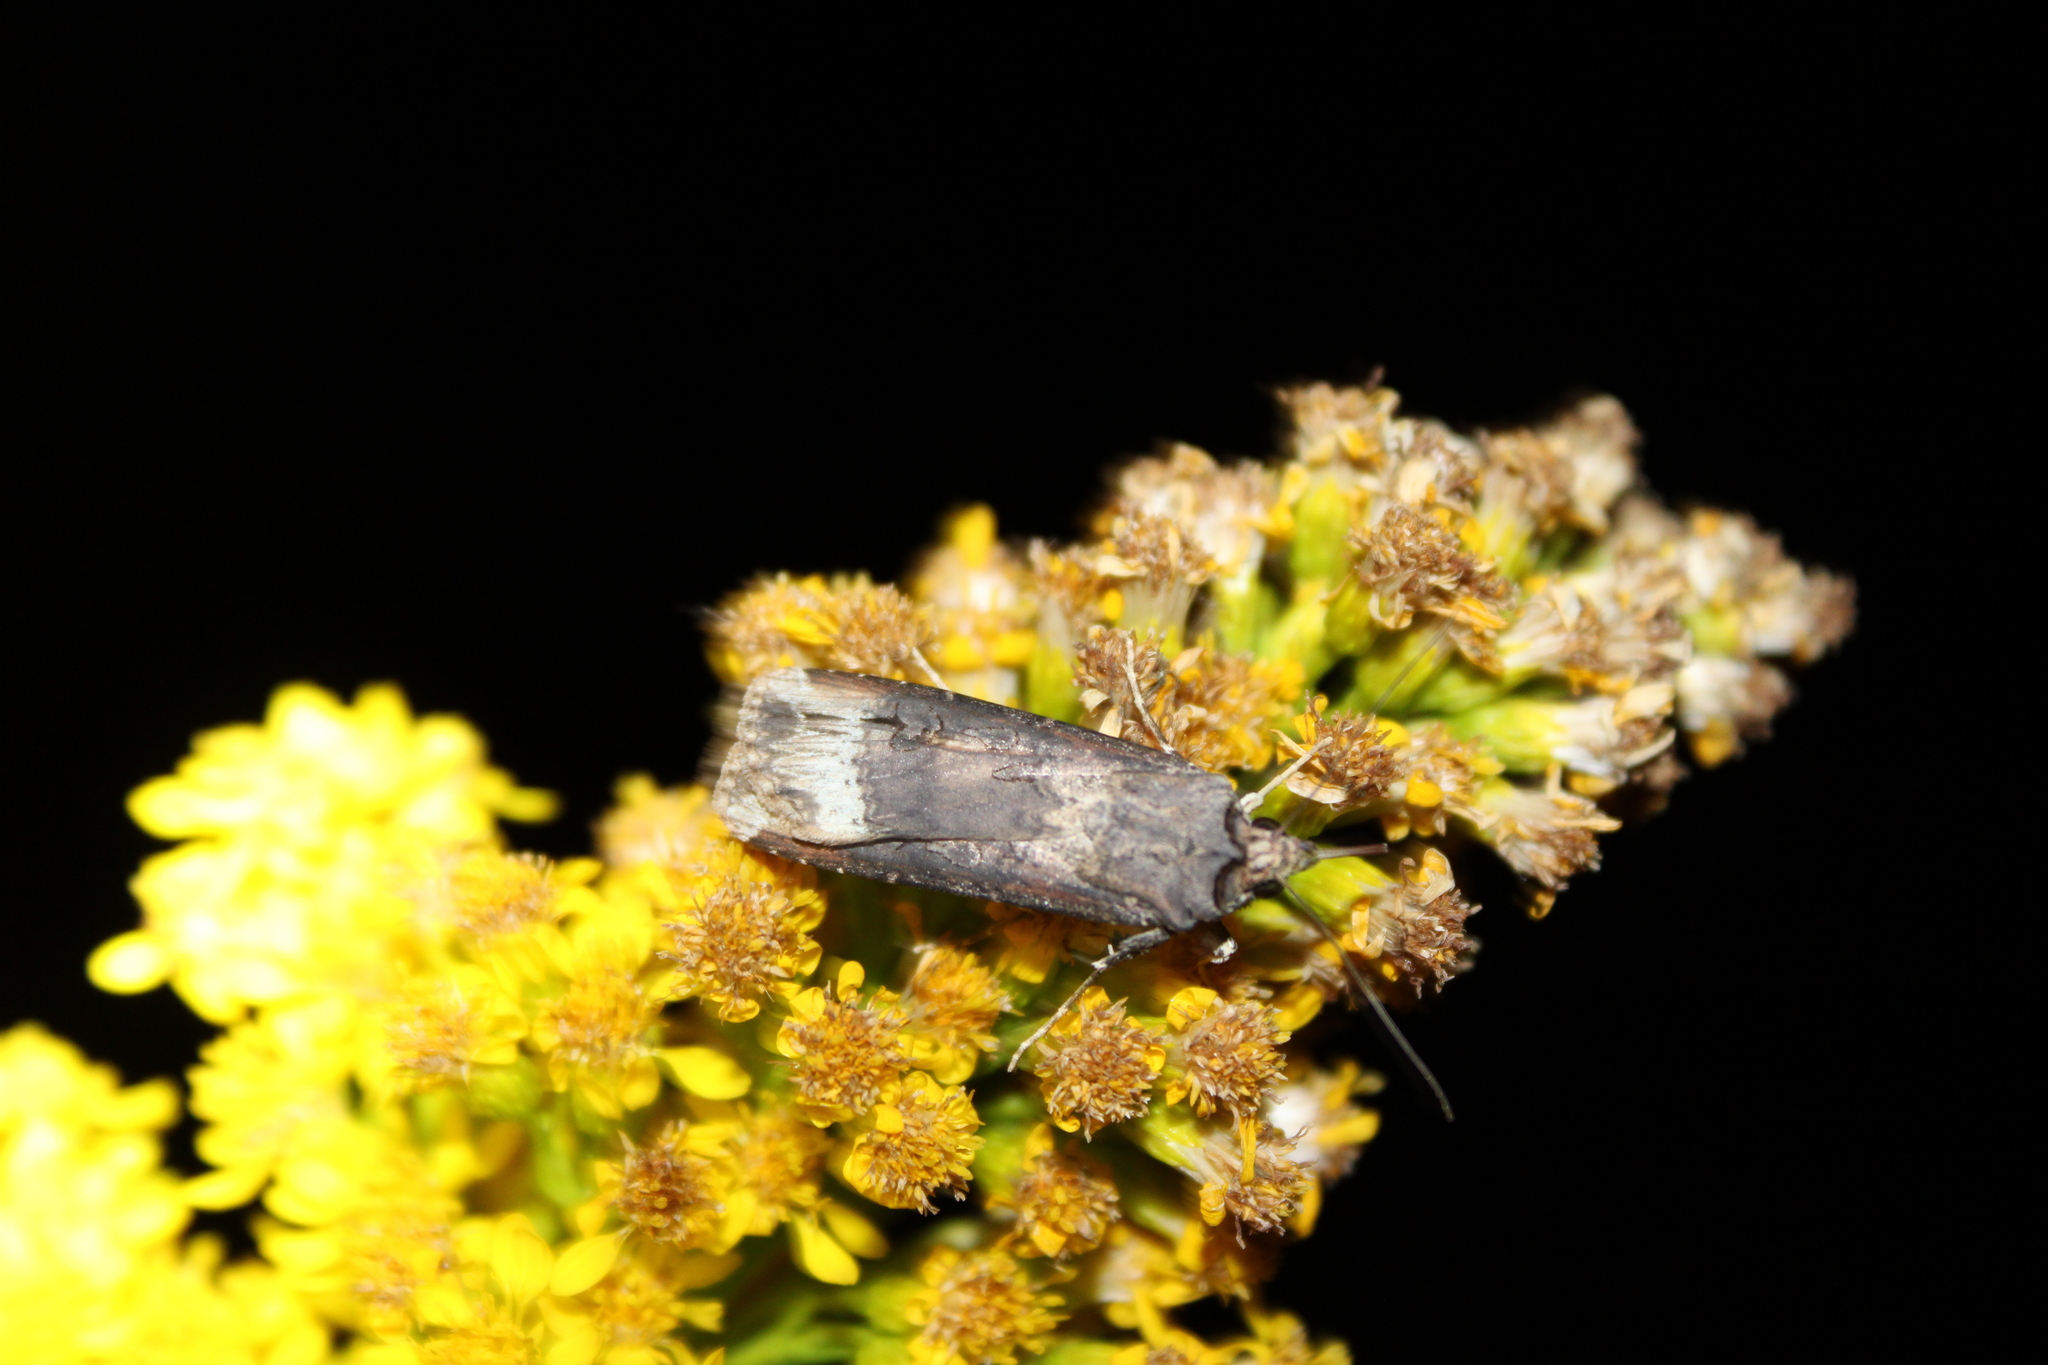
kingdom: Animalia
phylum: Arthropoda
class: Insecta
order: Lepidoptera
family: Noctuidae
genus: Agrotis
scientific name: Agrotis ipsilon
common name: Dark sword-grass
